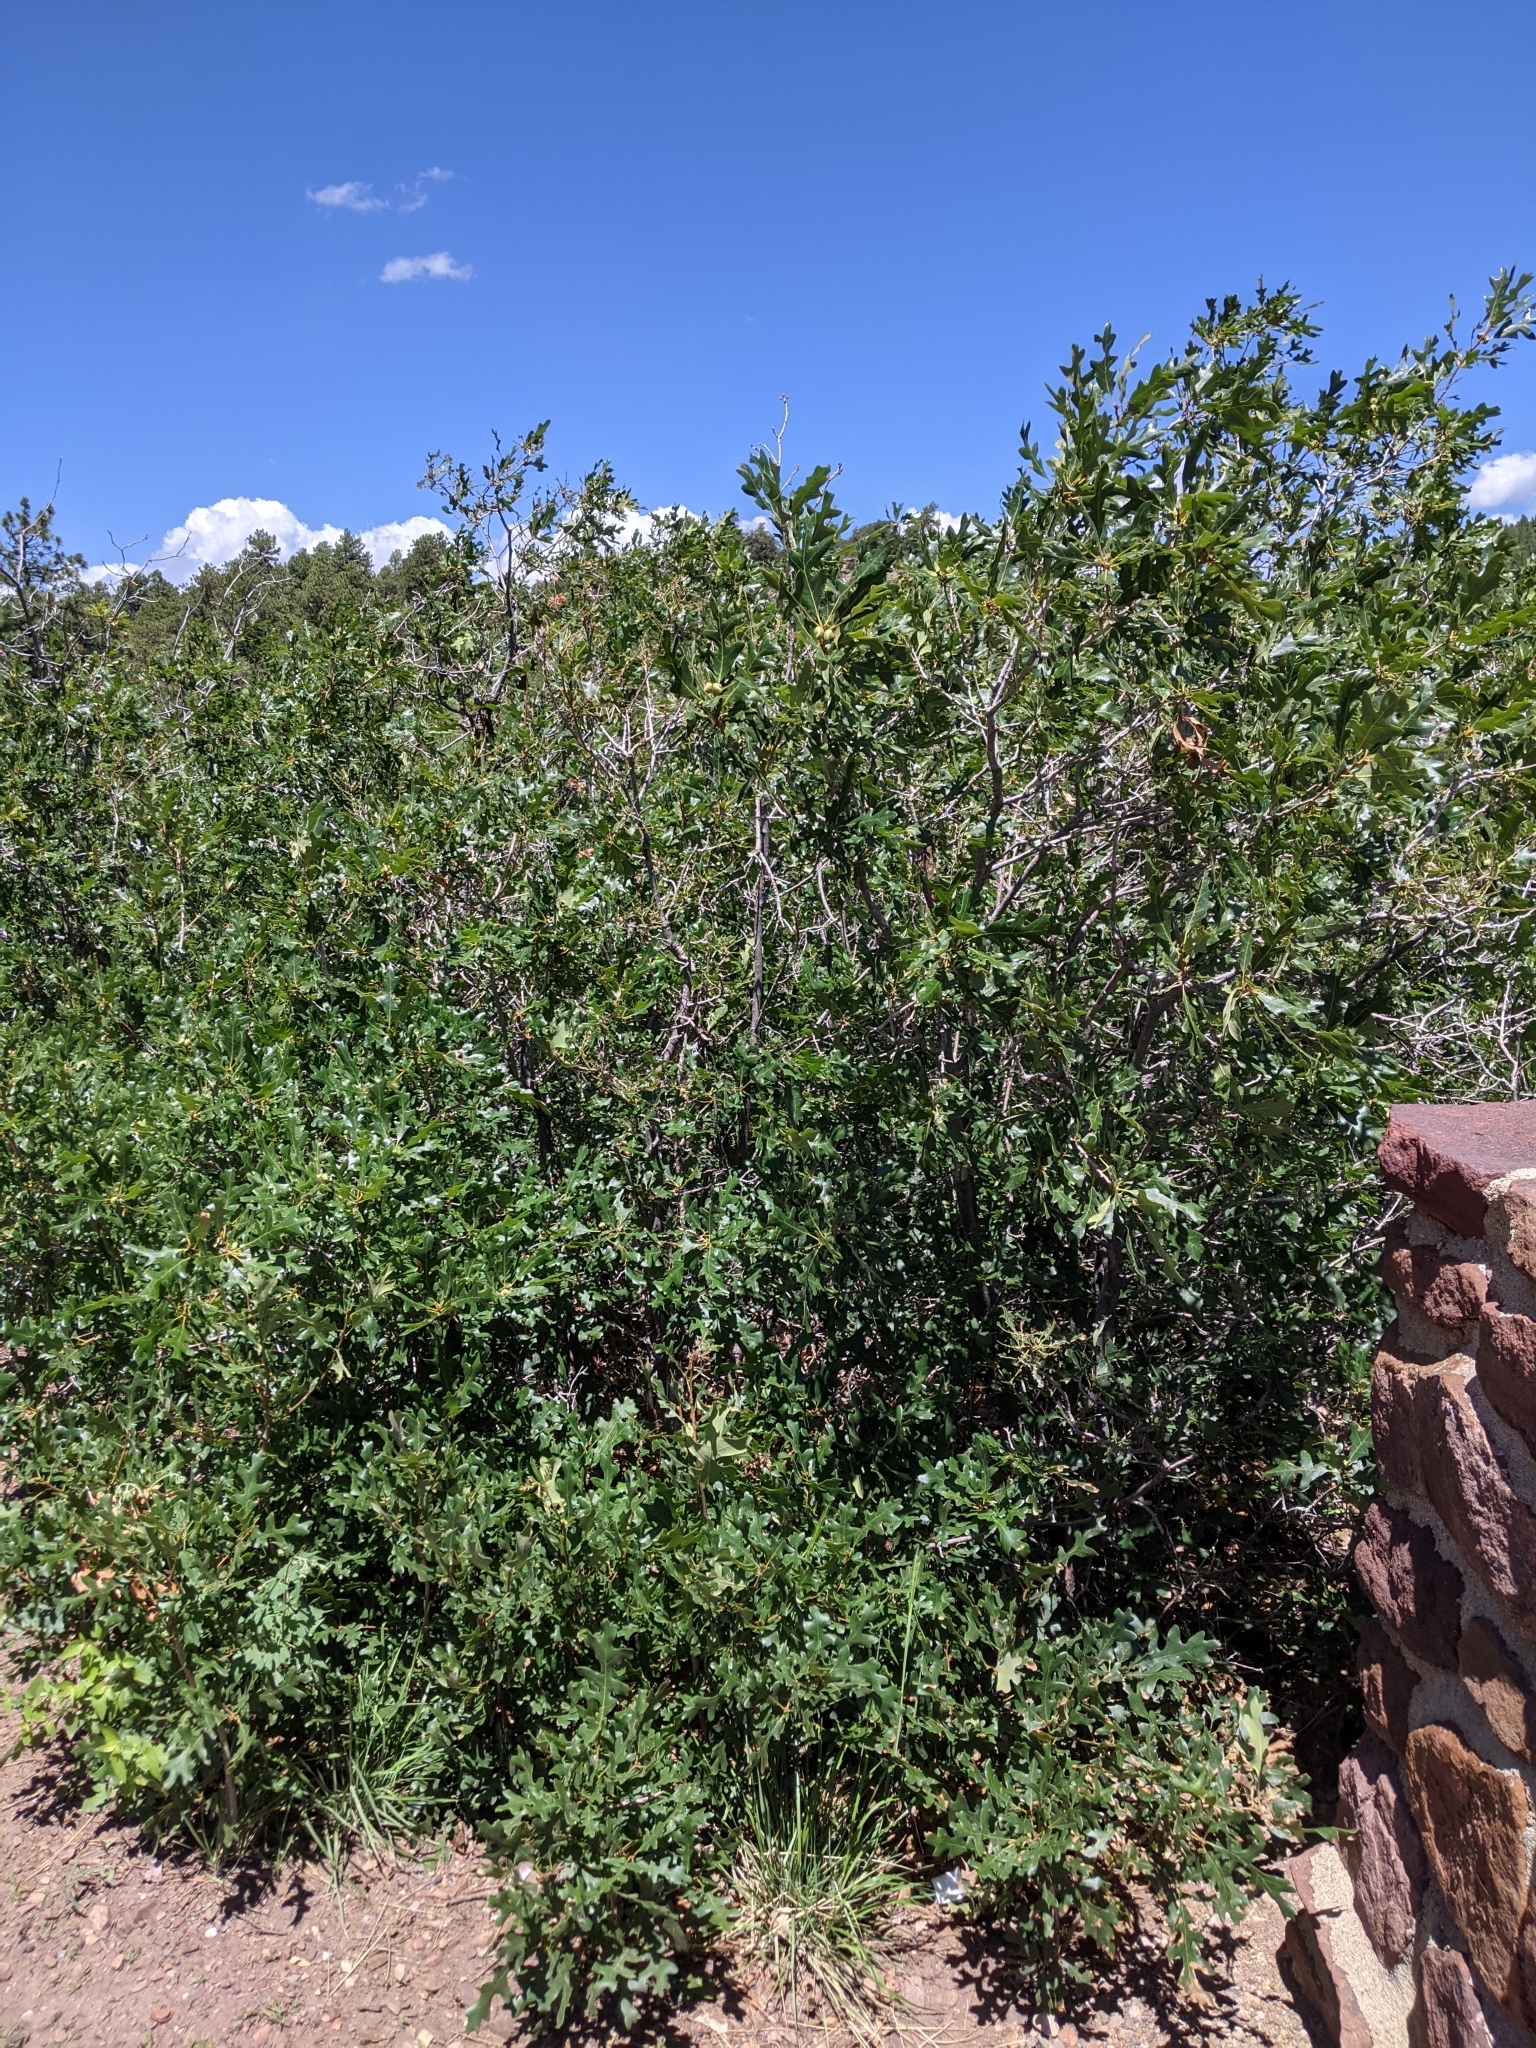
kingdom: Plantae
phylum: Tracheophyta
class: Magnoliopsida
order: Fagales
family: Fagaceae
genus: Quercus
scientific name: Quercus gambelii
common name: Gambel oak
